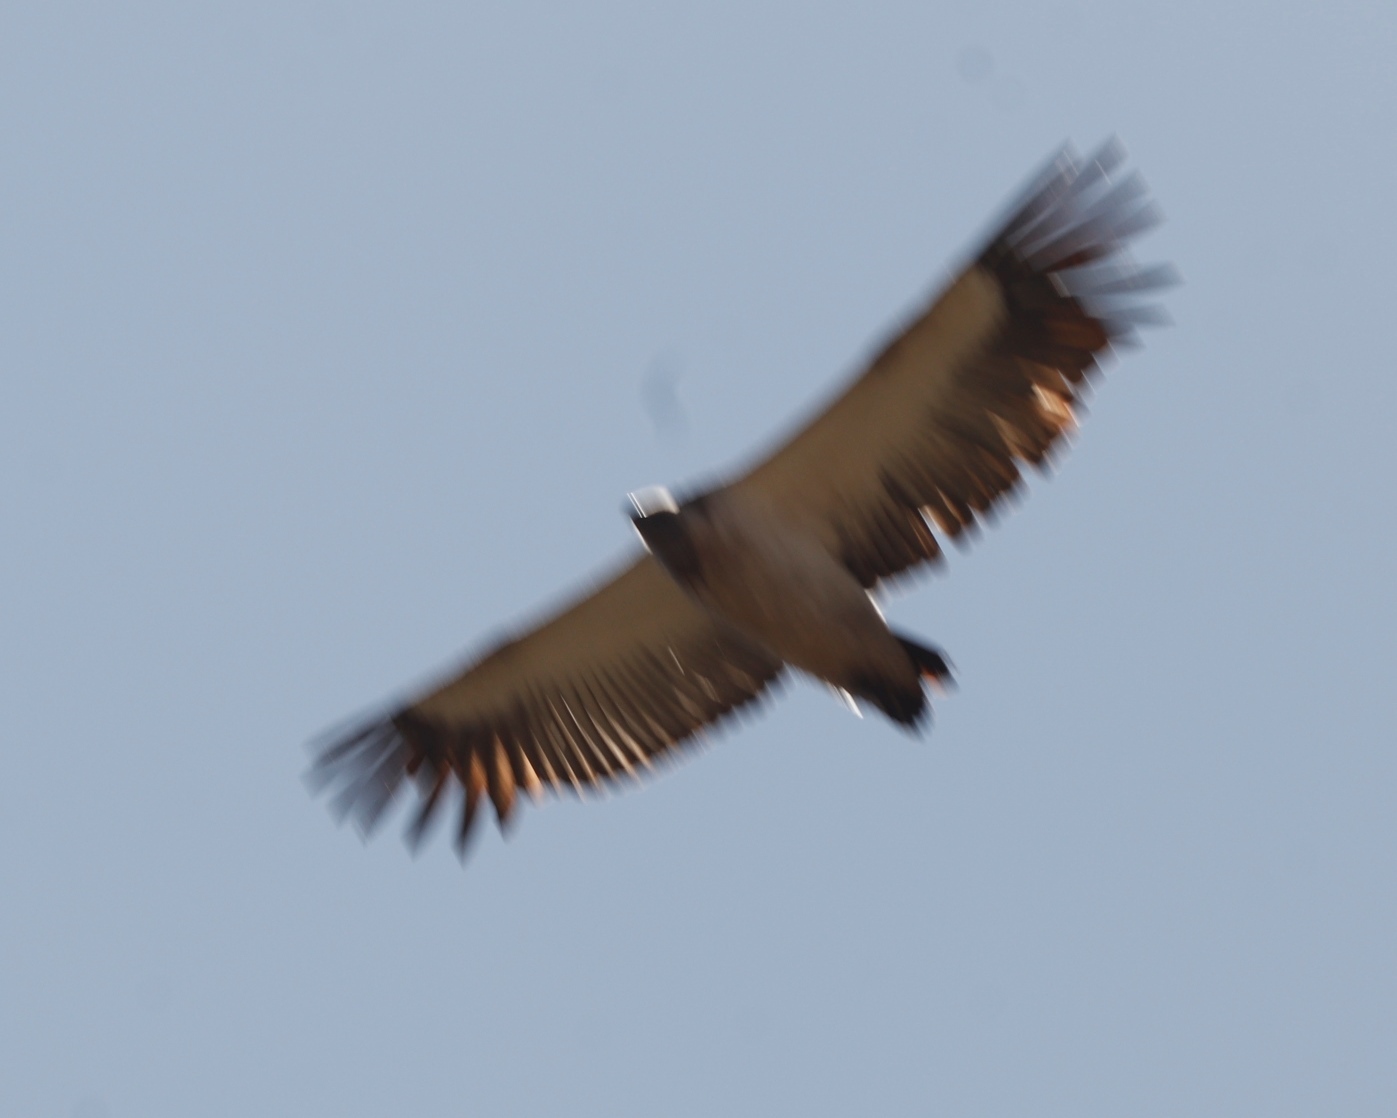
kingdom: Animalia
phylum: Chordata
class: Aves
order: Accipitriformes
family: Accipitridae
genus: Gyps
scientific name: Gyps coprotheres
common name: Cape vulture
